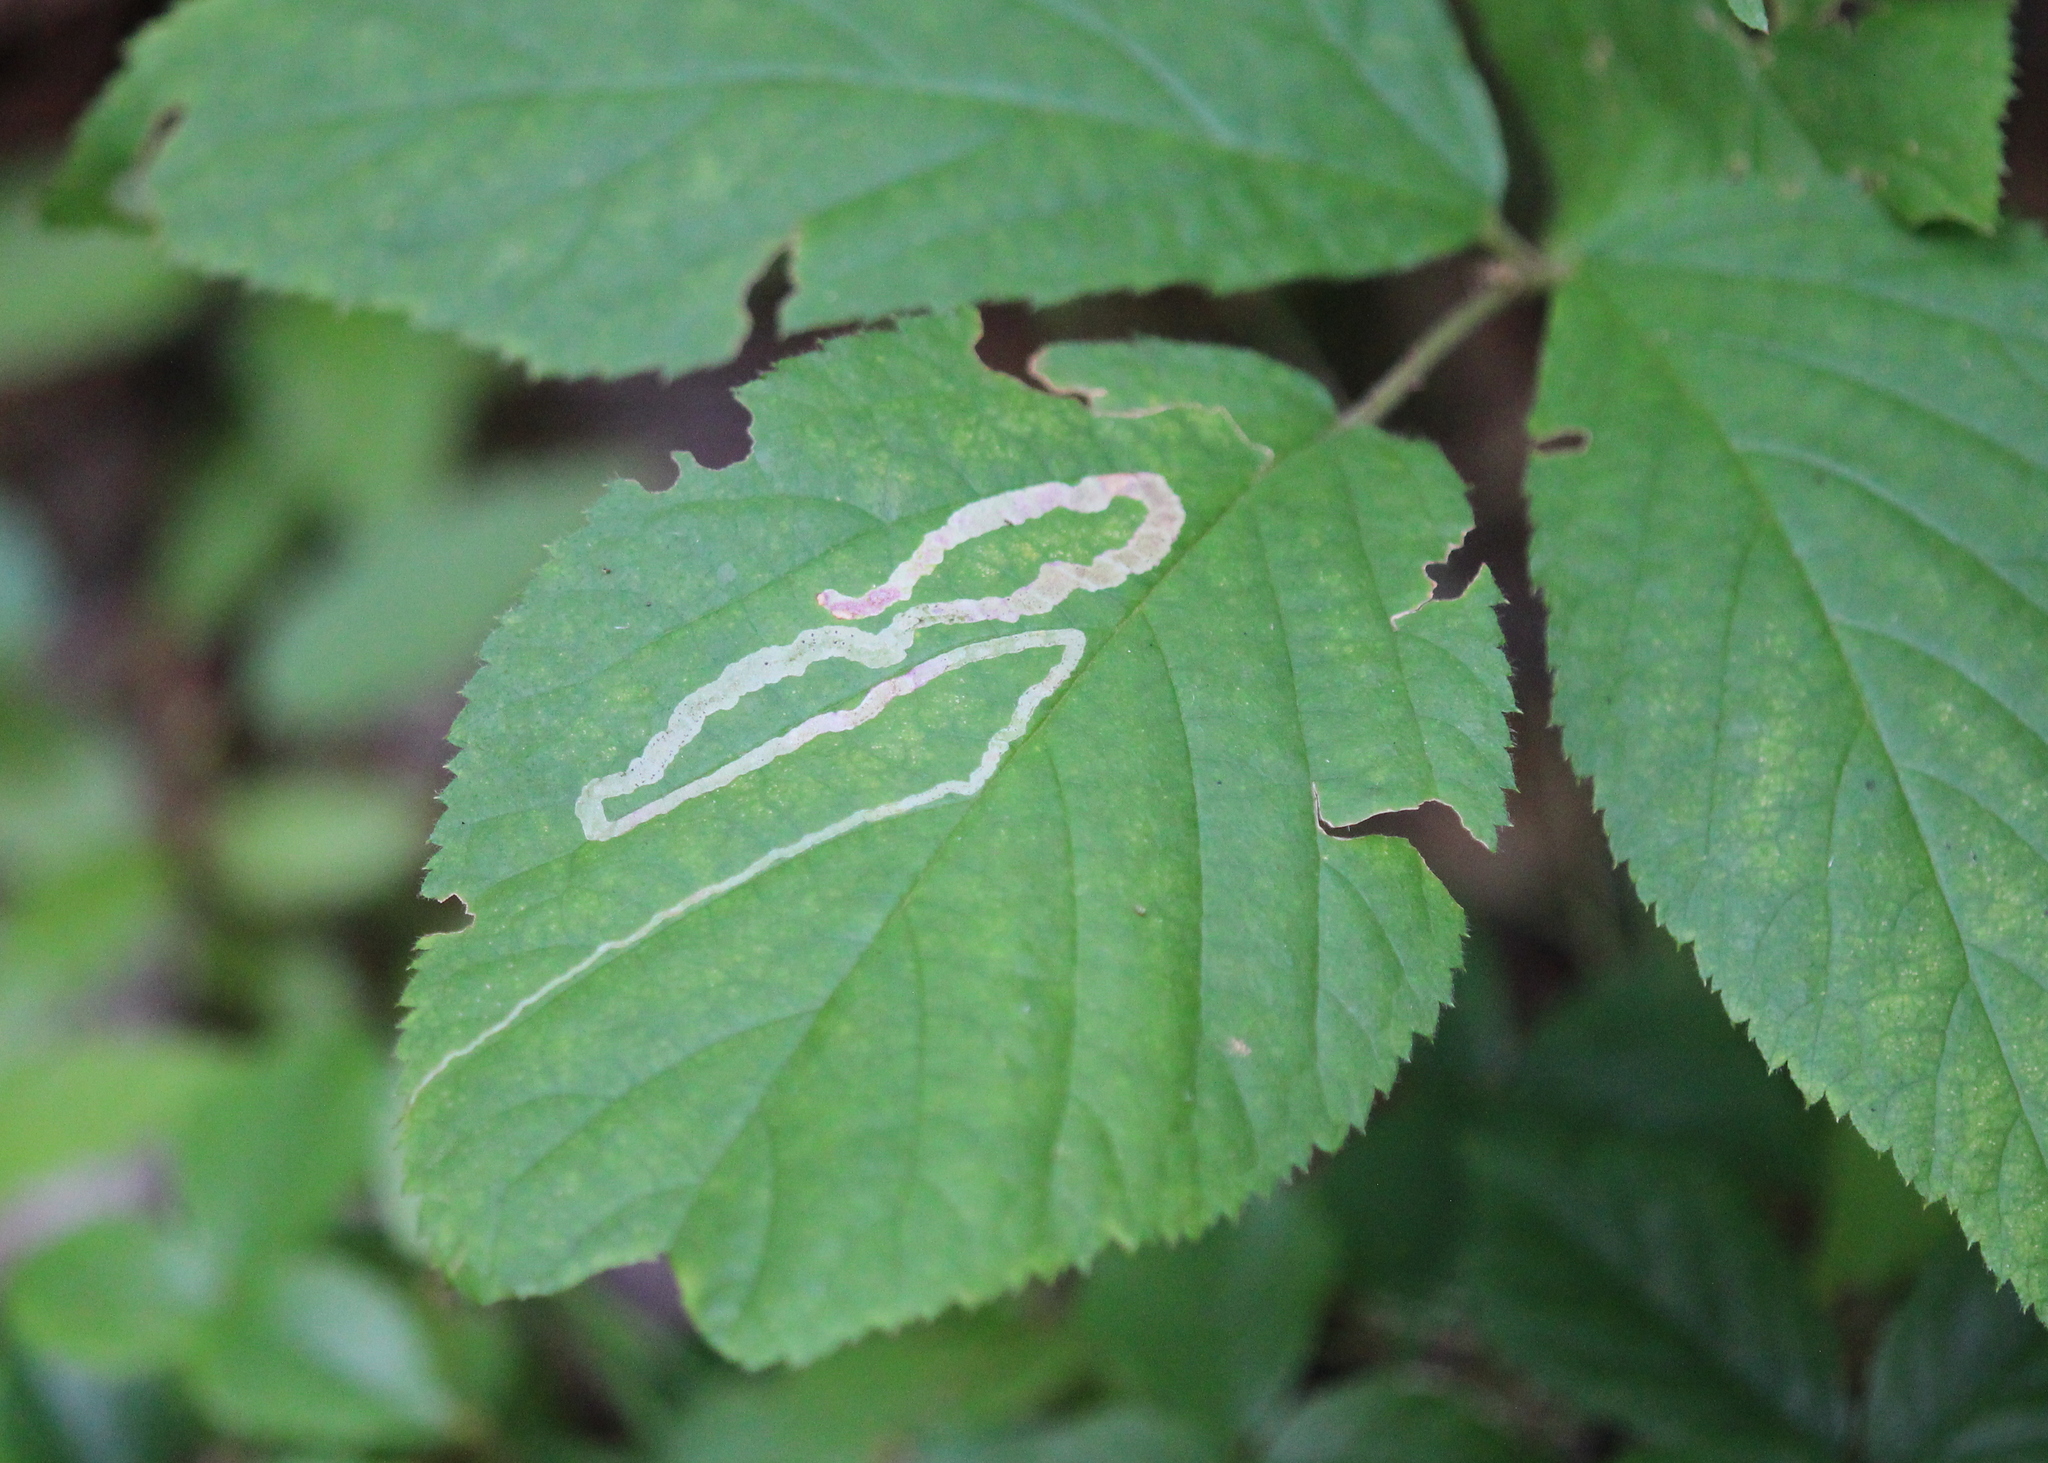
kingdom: Animalia
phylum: Arthropoda
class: Insecta
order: Diptera
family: Agromyzidae
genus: Agromyza
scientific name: Agromyza vockerothi
